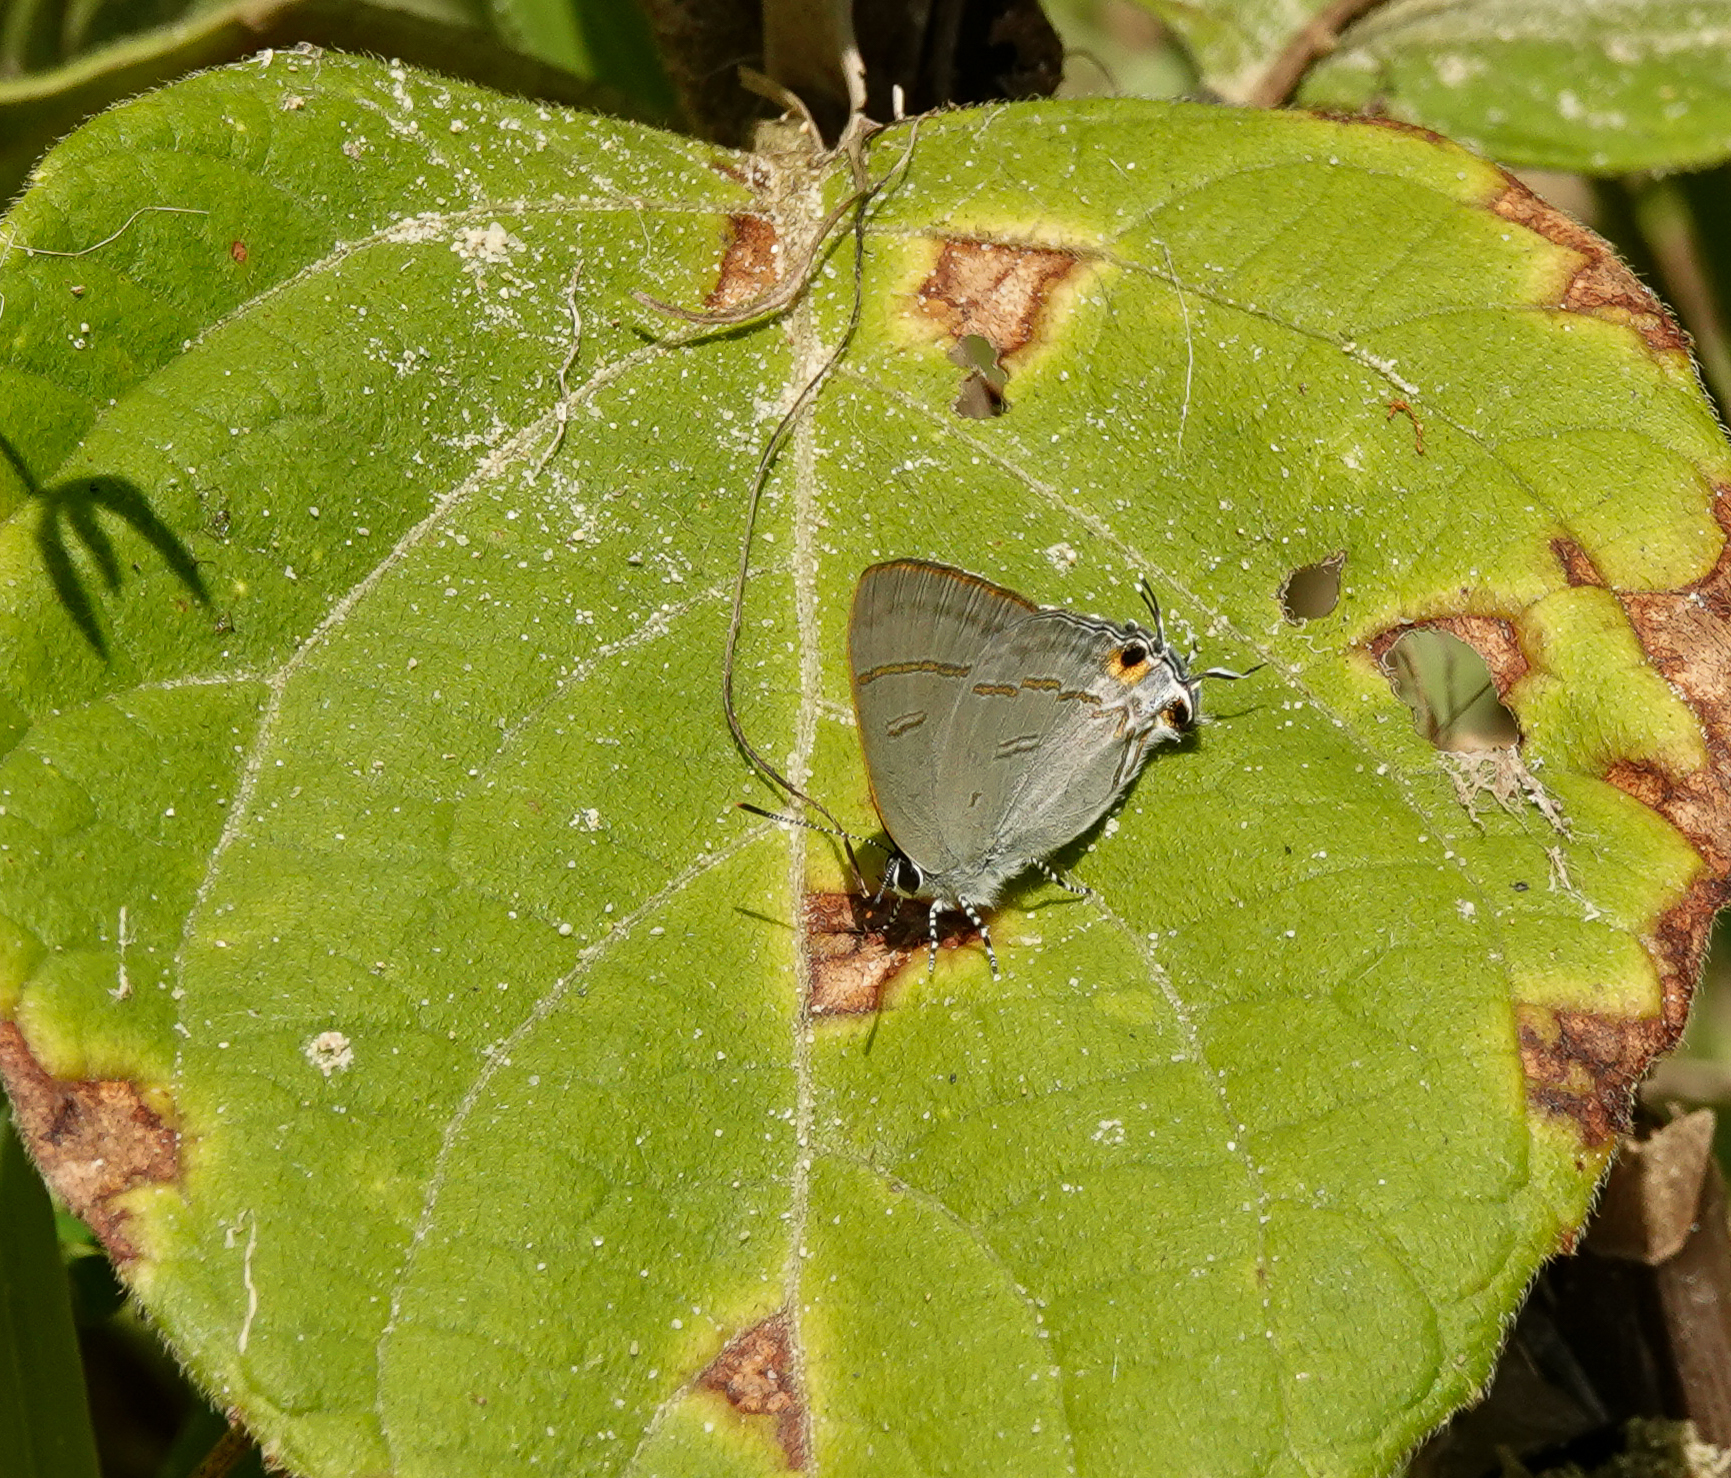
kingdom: Animalia
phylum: Arthropoda
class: Insecta
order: Lepidoptera
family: Lycaenidae
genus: Hypolycaena
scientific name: Hypolycaena erylus
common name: Common tit
